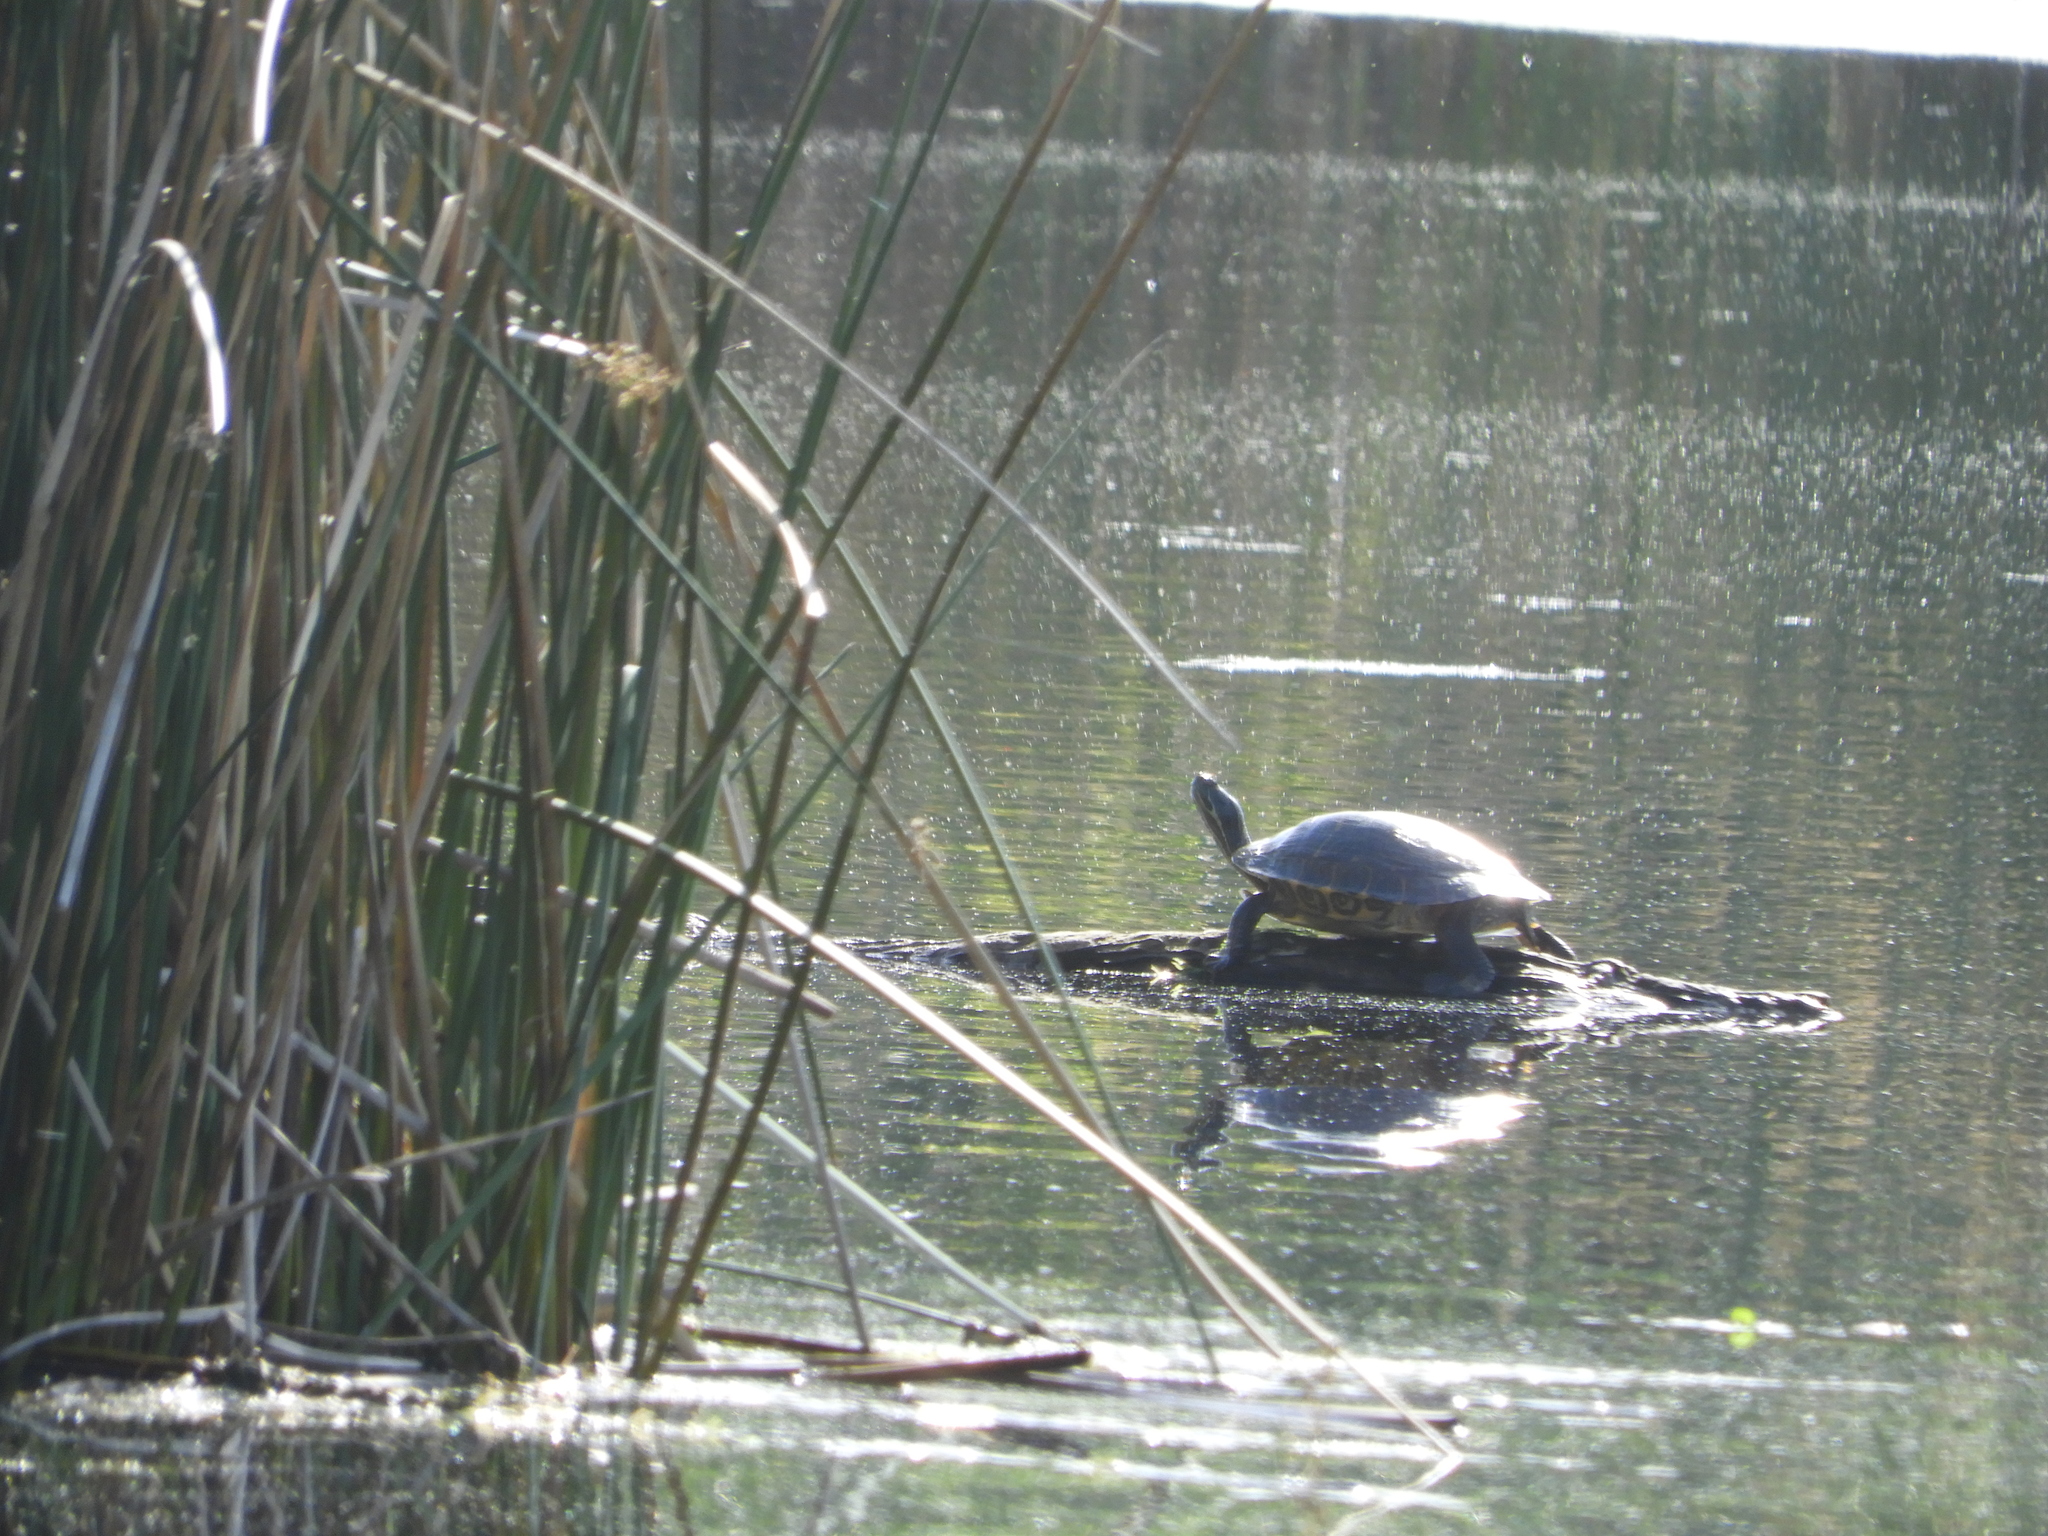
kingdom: Animalia
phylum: Chordata
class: Testudines
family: Emydidae
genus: Trachemys
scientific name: Trachemys scripta
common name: Slider
